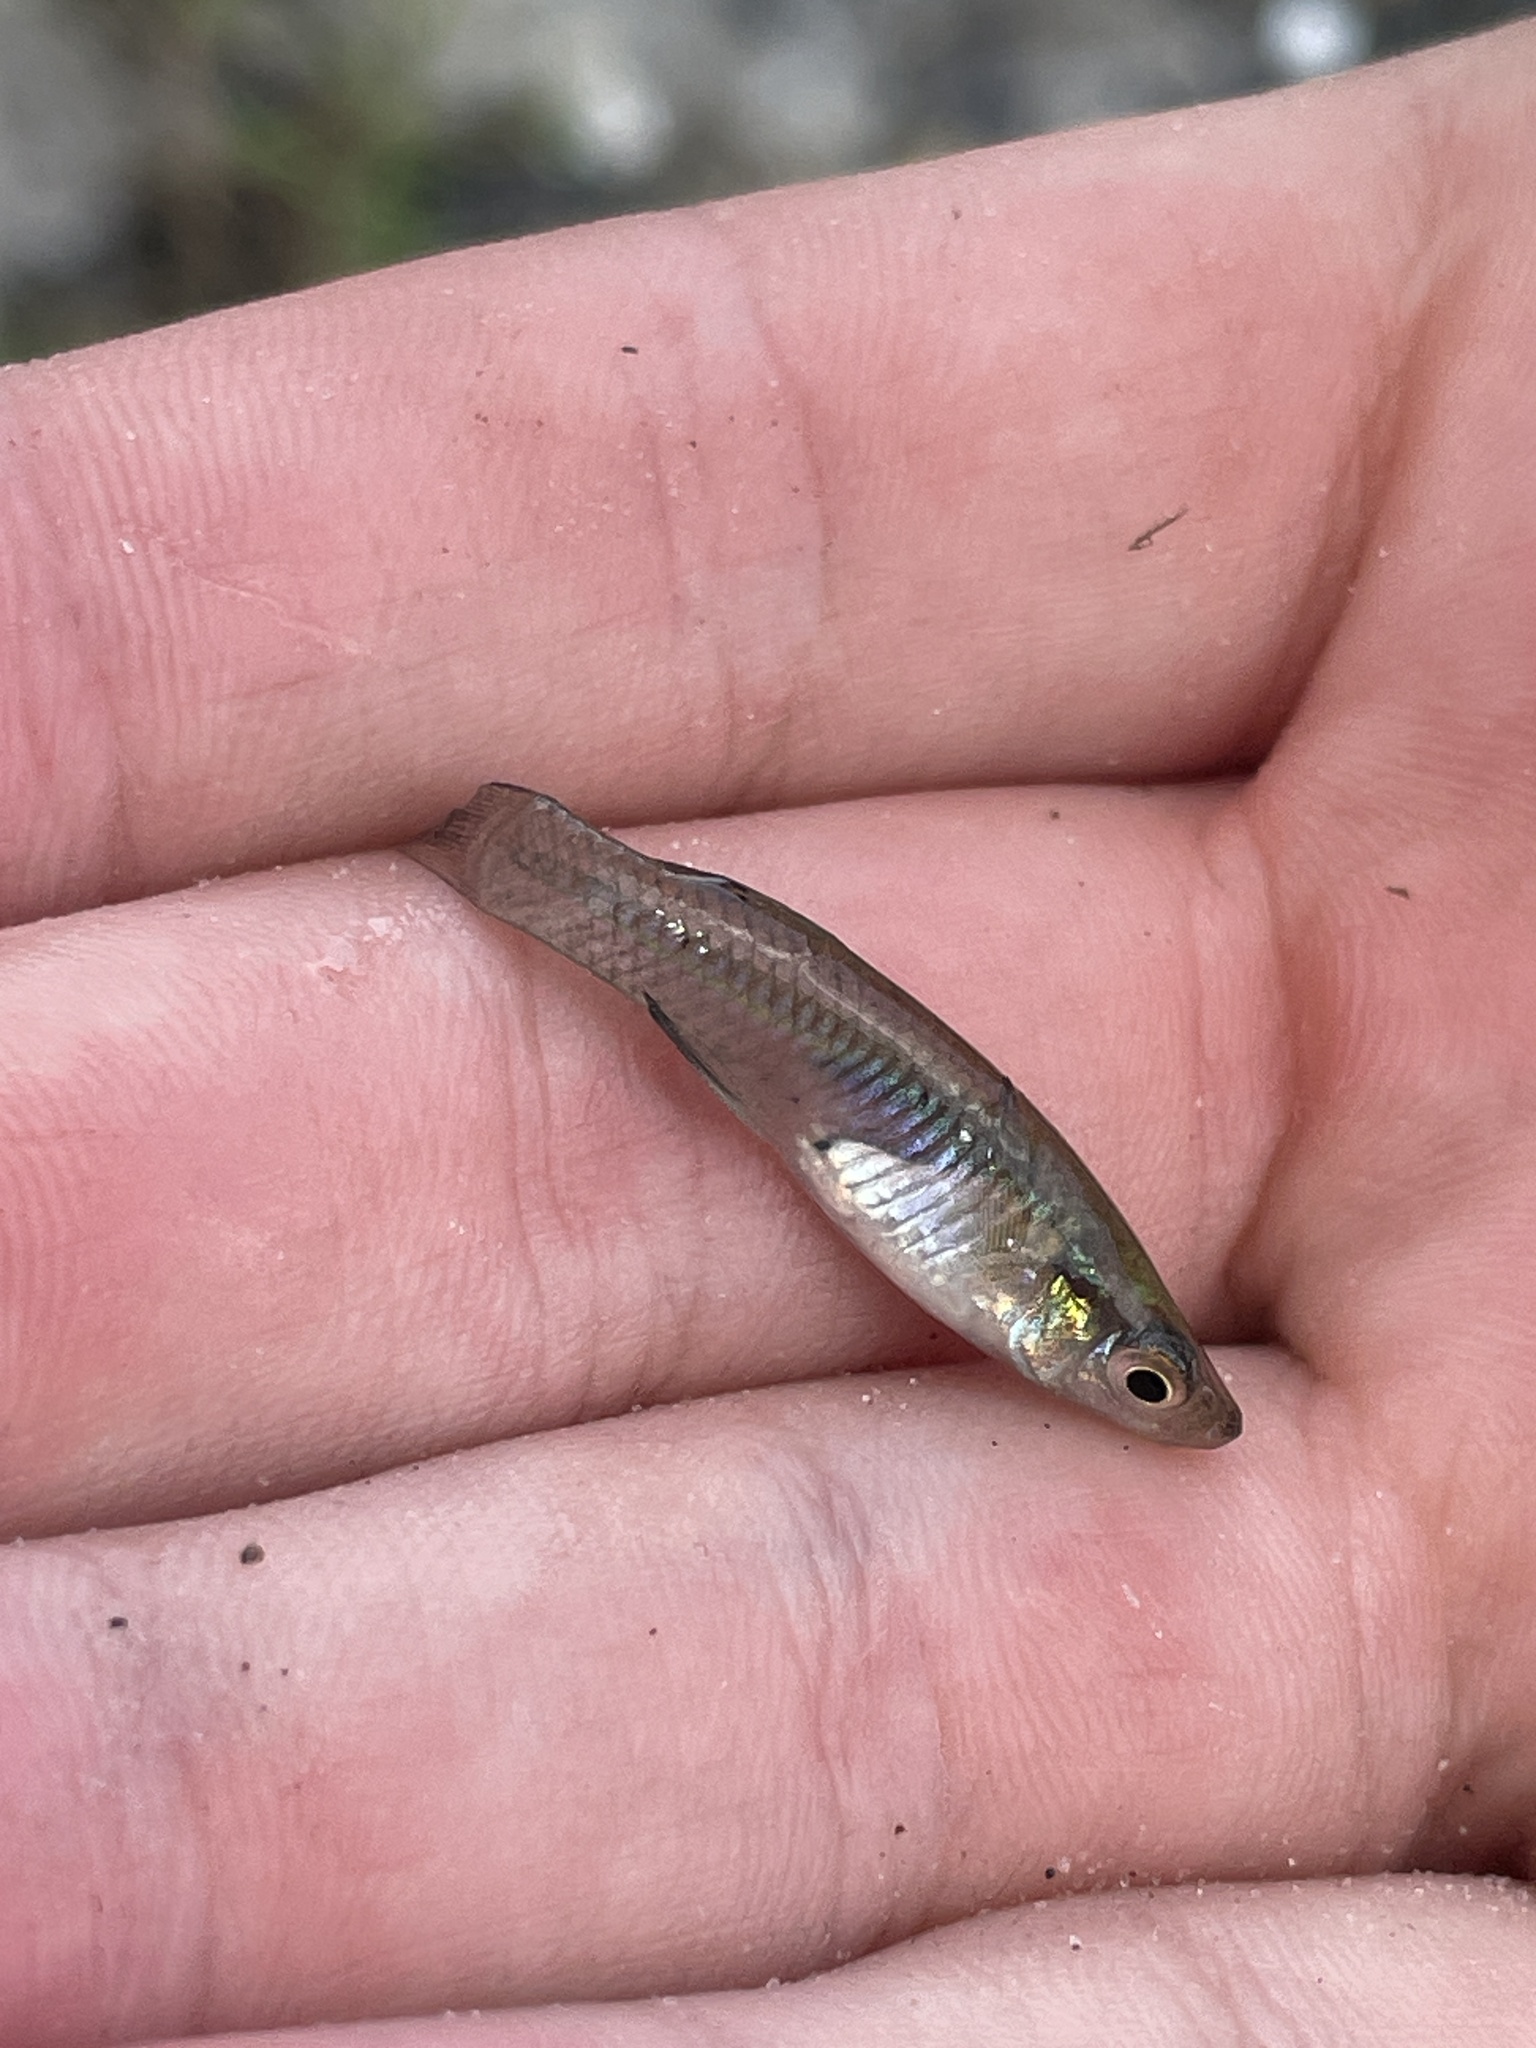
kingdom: Animalia
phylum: Chordata
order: Cyprinodontiformes
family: Poeciliidae
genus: Gambusia
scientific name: Gambusia holbrooki
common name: Eastern mosquitofish
